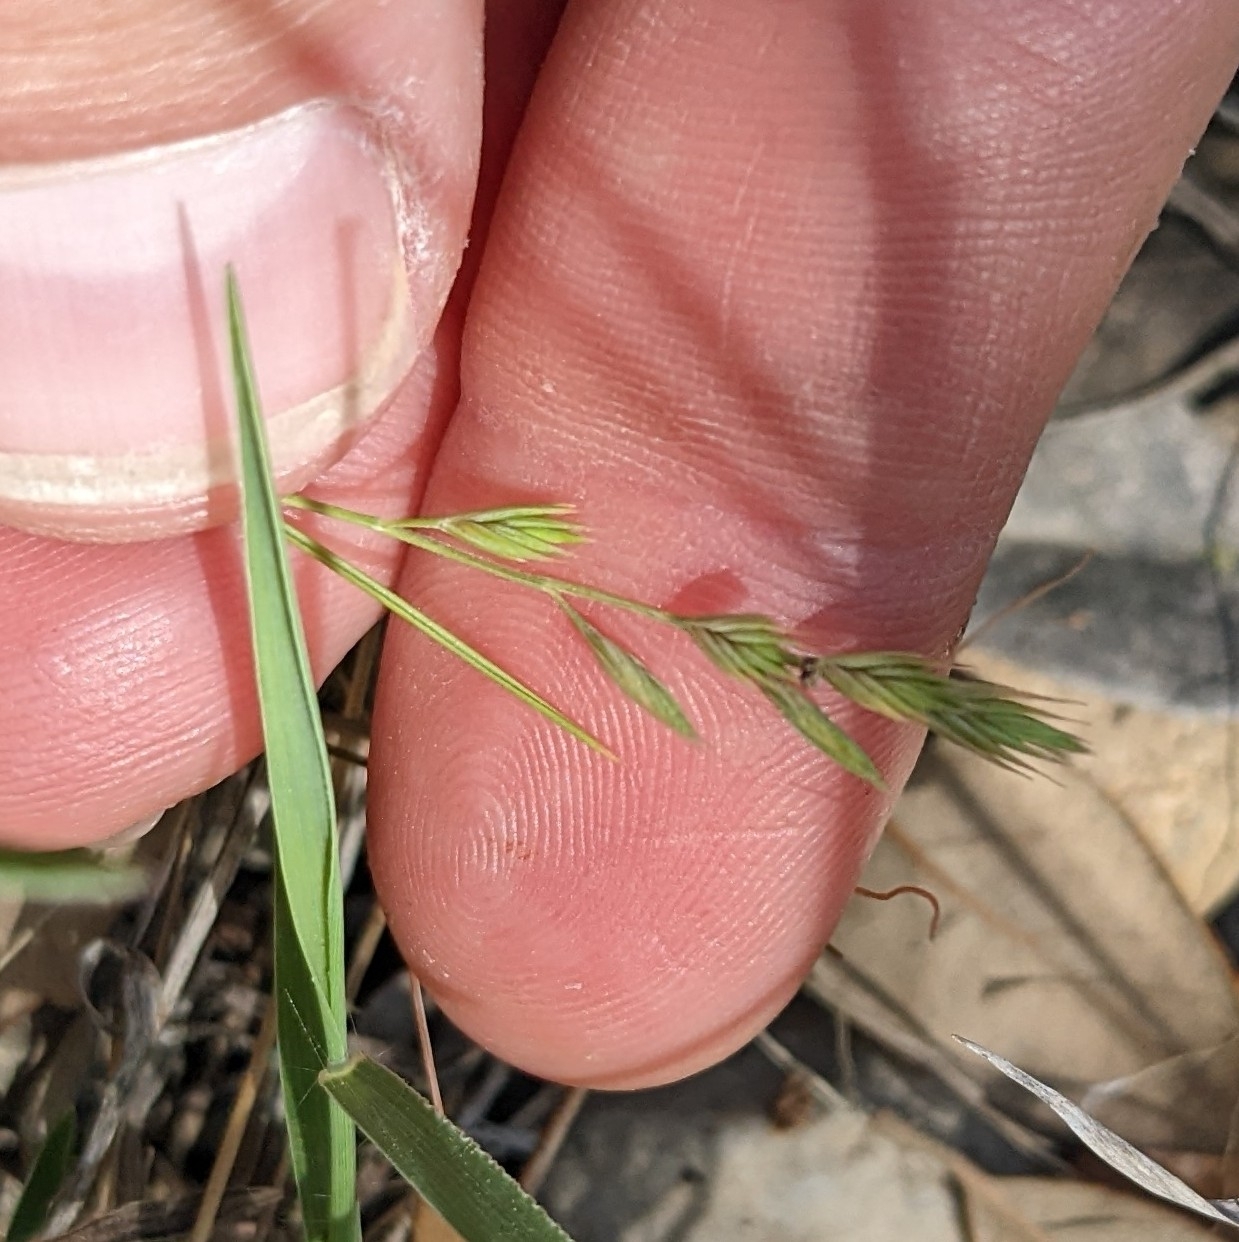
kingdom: Plantae
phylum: Tracheophyta
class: Liliopsida
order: Poales
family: Poaceae
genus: Festuca
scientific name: Festuca octoflora
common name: Sixweeks grass
